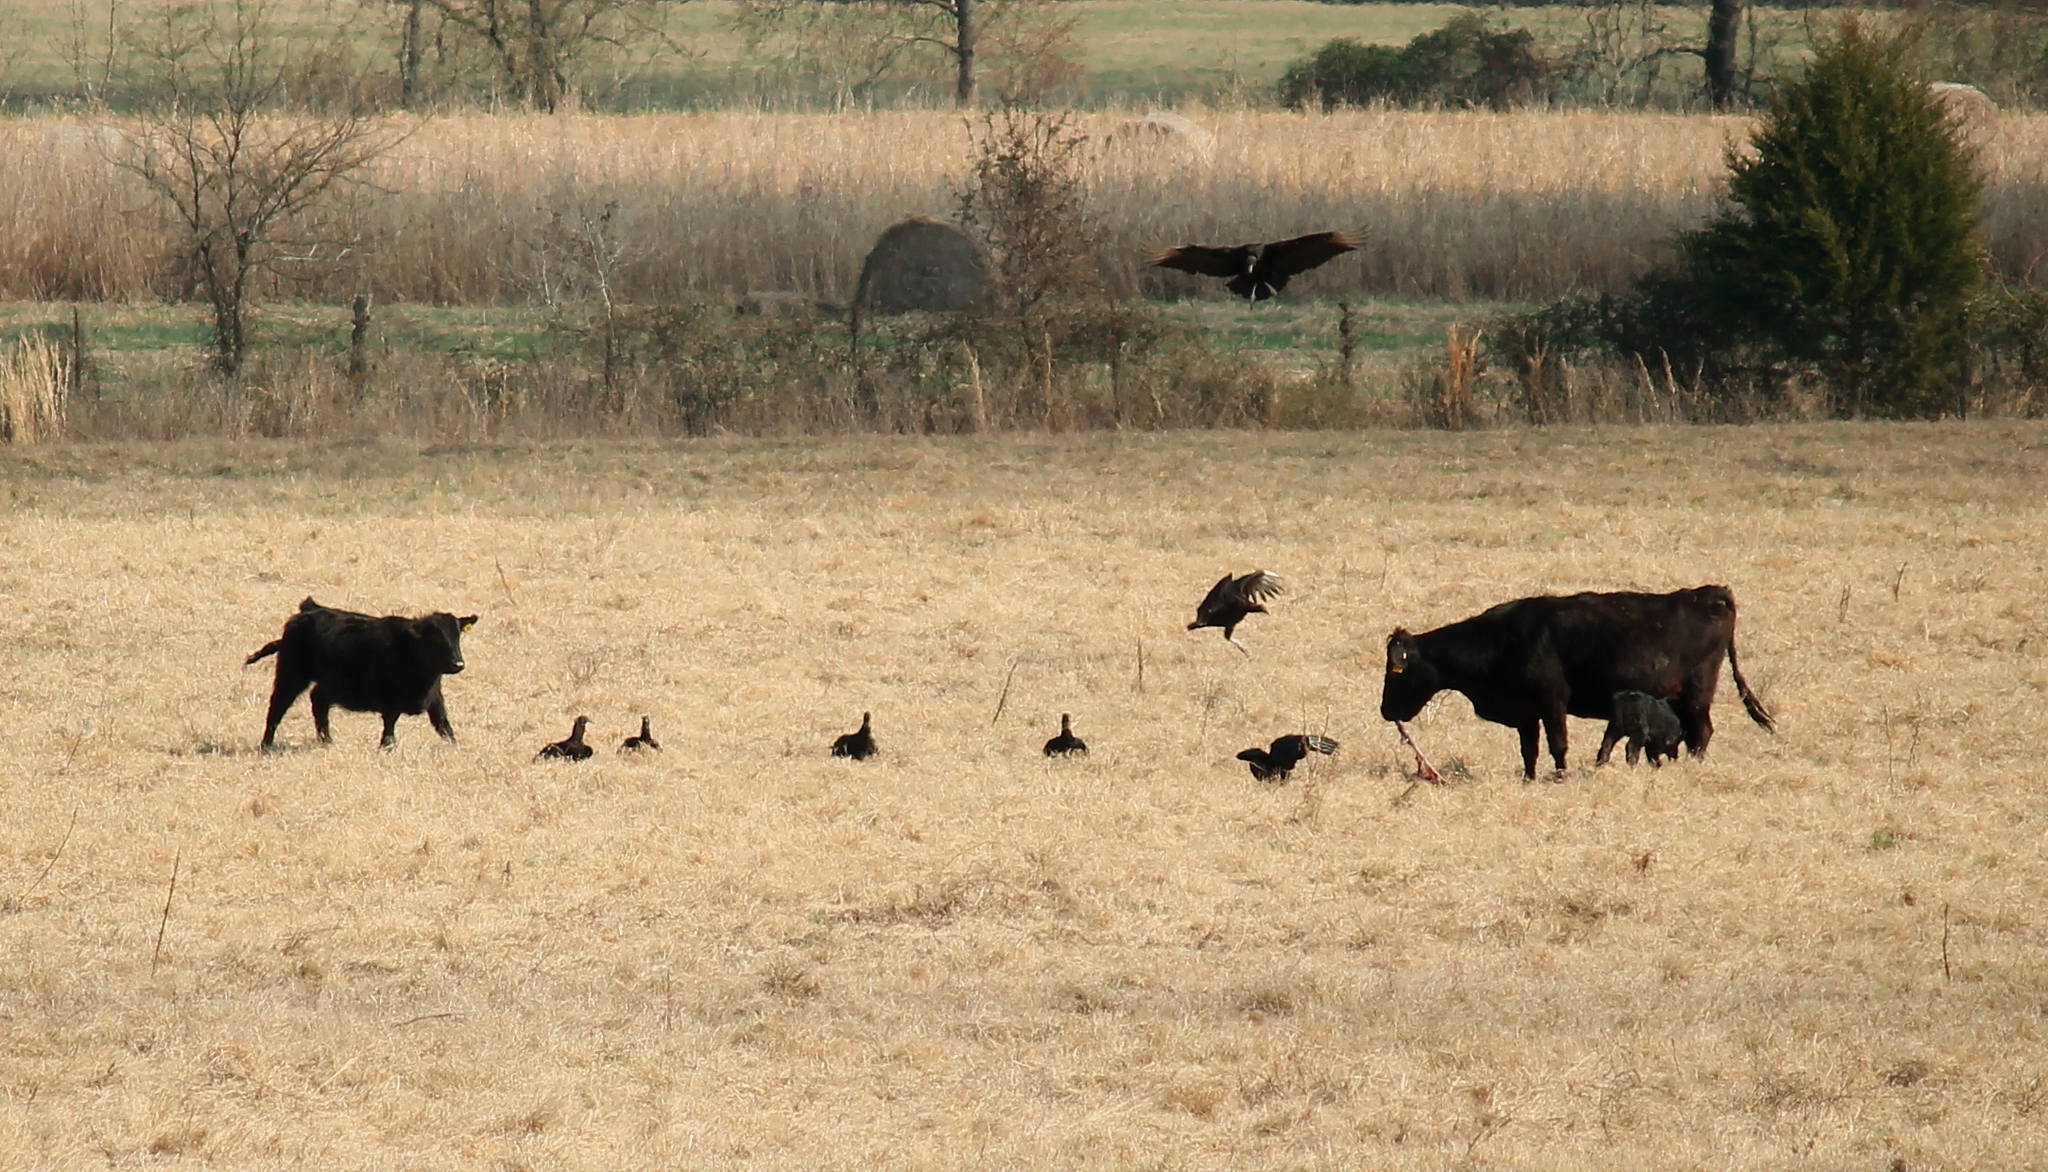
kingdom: Animalia
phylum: Chordata
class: Aves
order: Accipitriformes
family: Cathartidae
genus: Coragyps
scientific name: Coragyps atratus
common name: Black vulture
